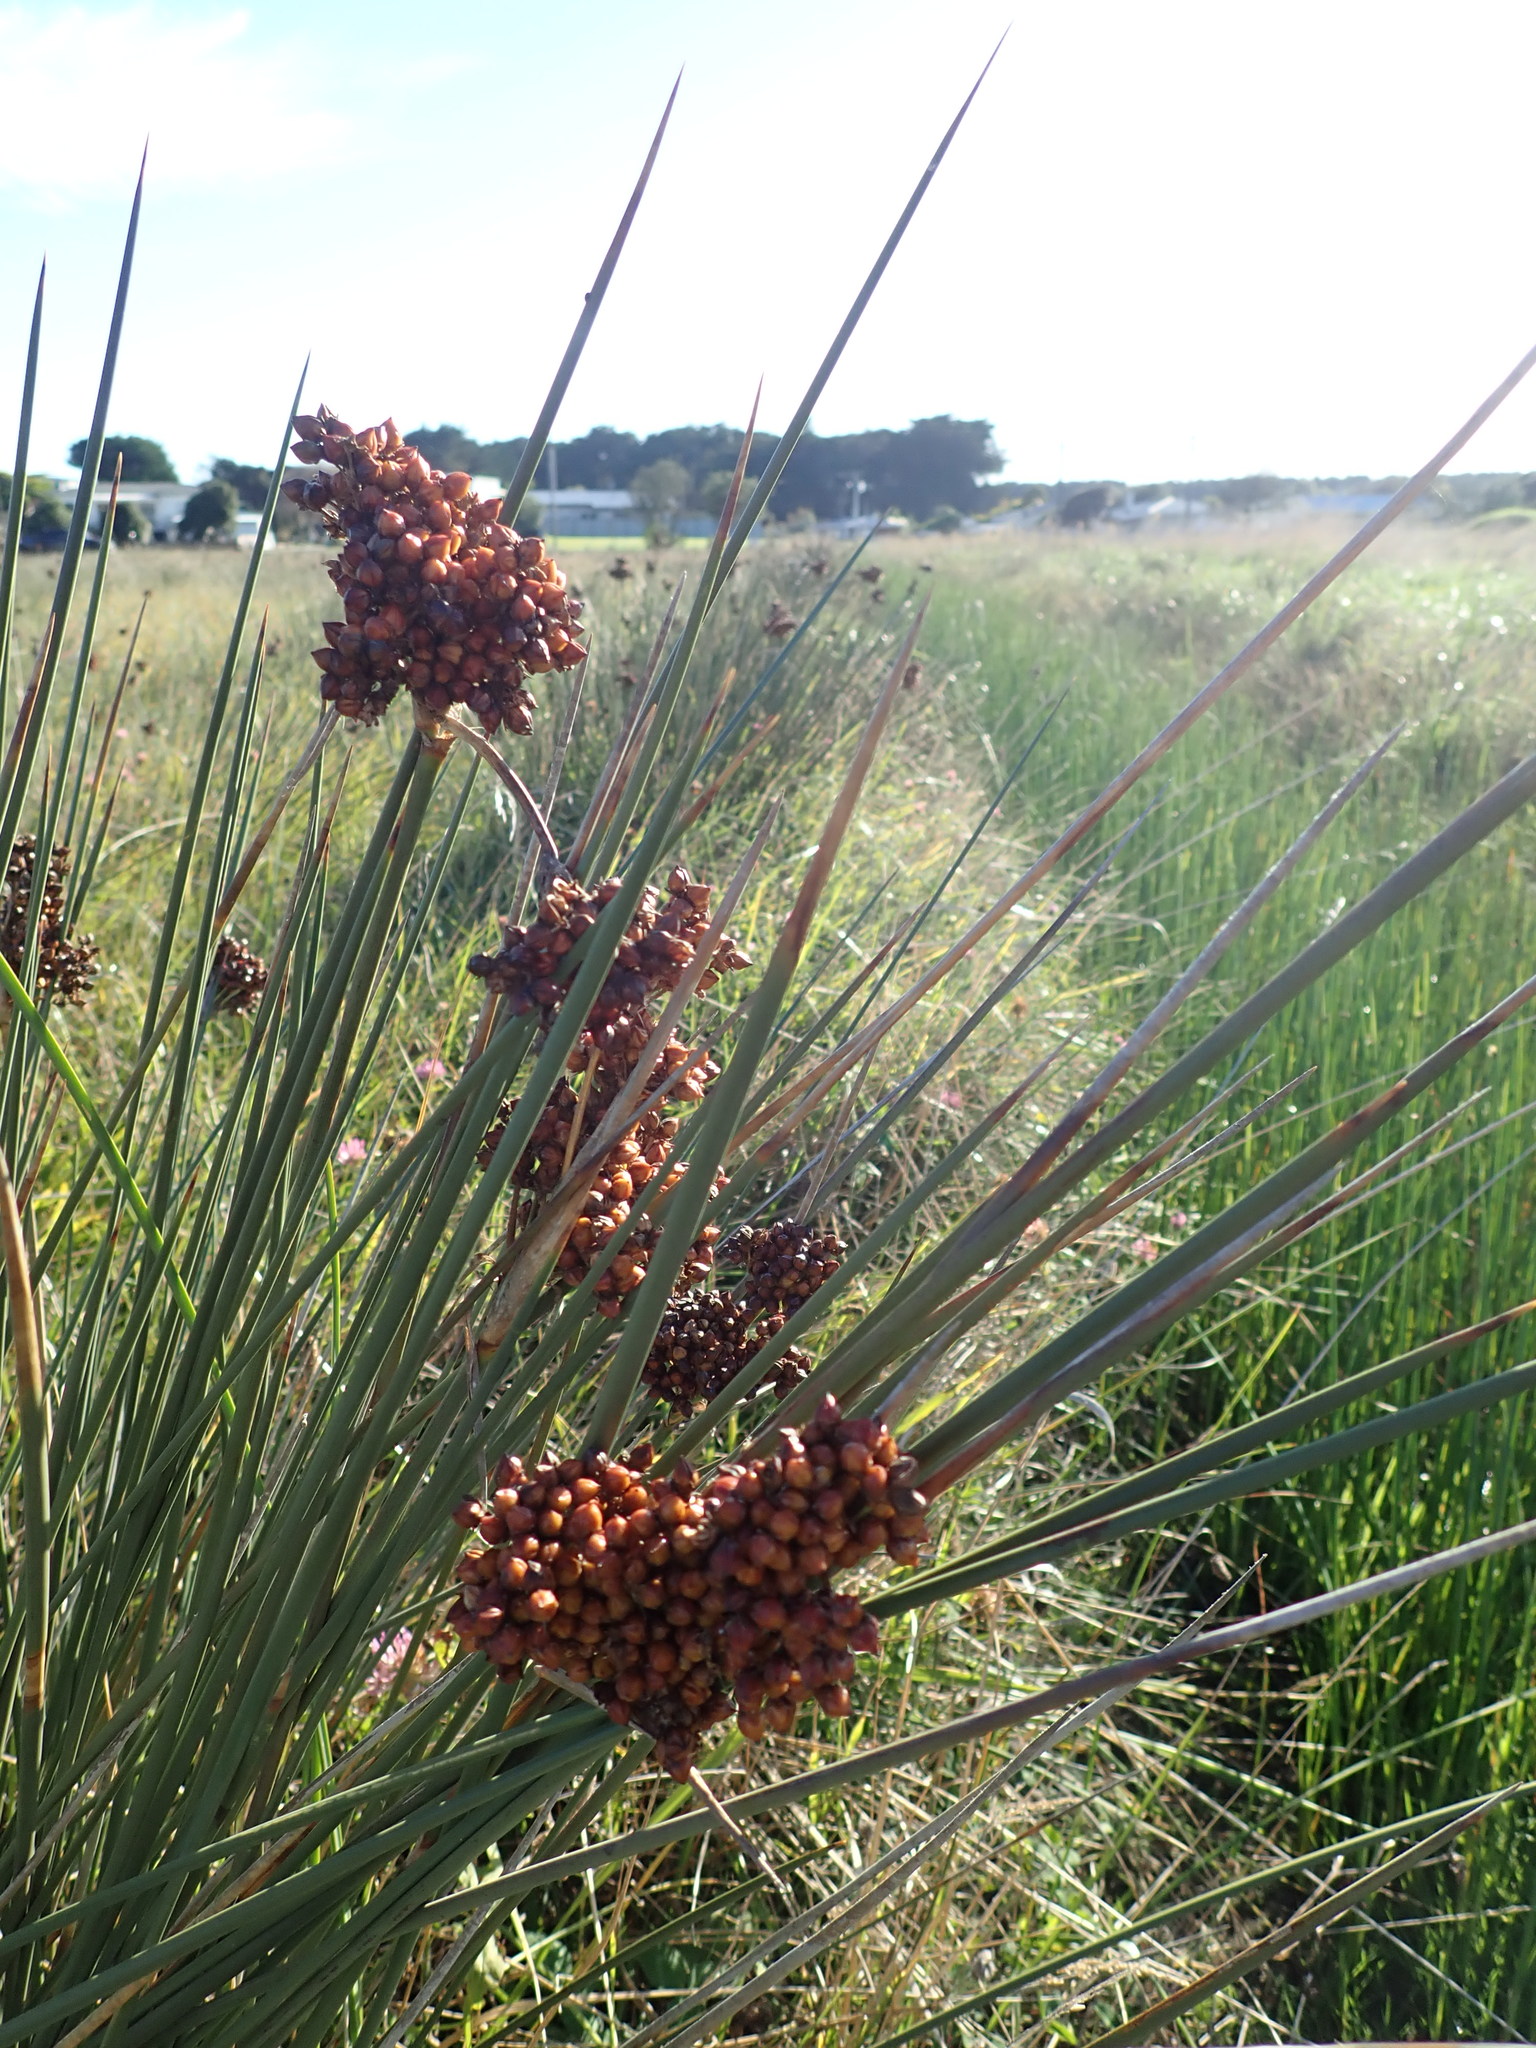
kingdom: Plantae
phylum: Tracheophyta
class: Liliopsida
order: Poales
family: Juncaceae
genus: Juncus
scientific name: Juncus acutus
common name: Sharp rush
